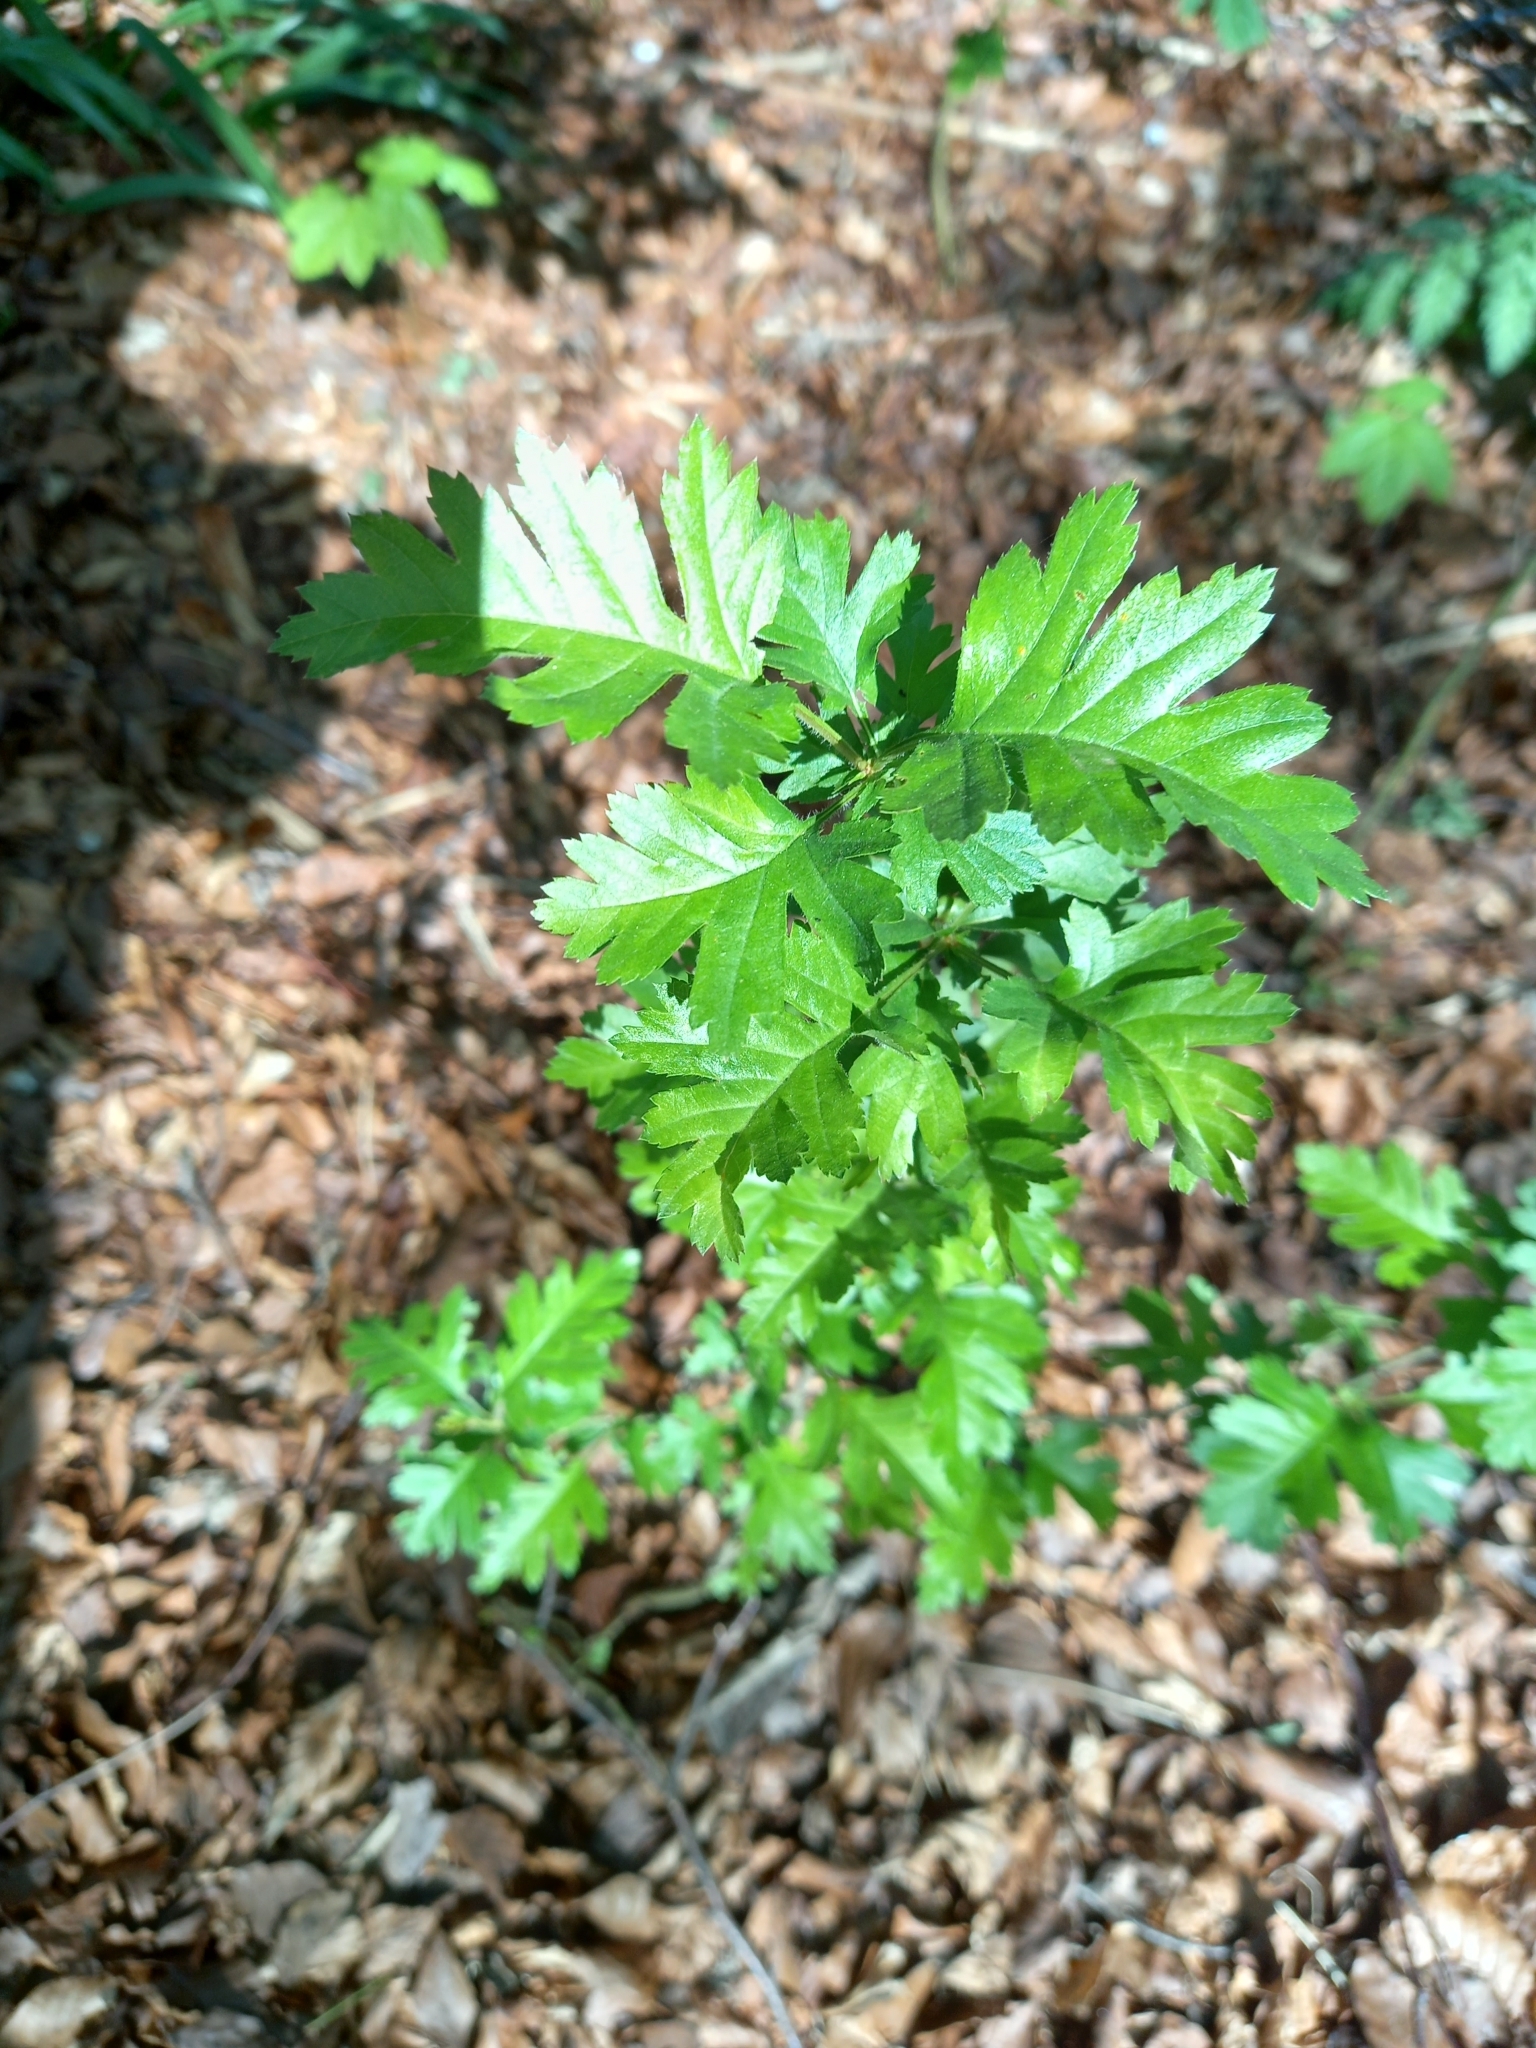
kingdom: Plantae
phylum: Tracheophyta
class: Magnoliopsida
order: Rosales
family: Rosaceae
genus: Crataegus
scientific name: Crataegus monogyna
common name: Hawthorn
